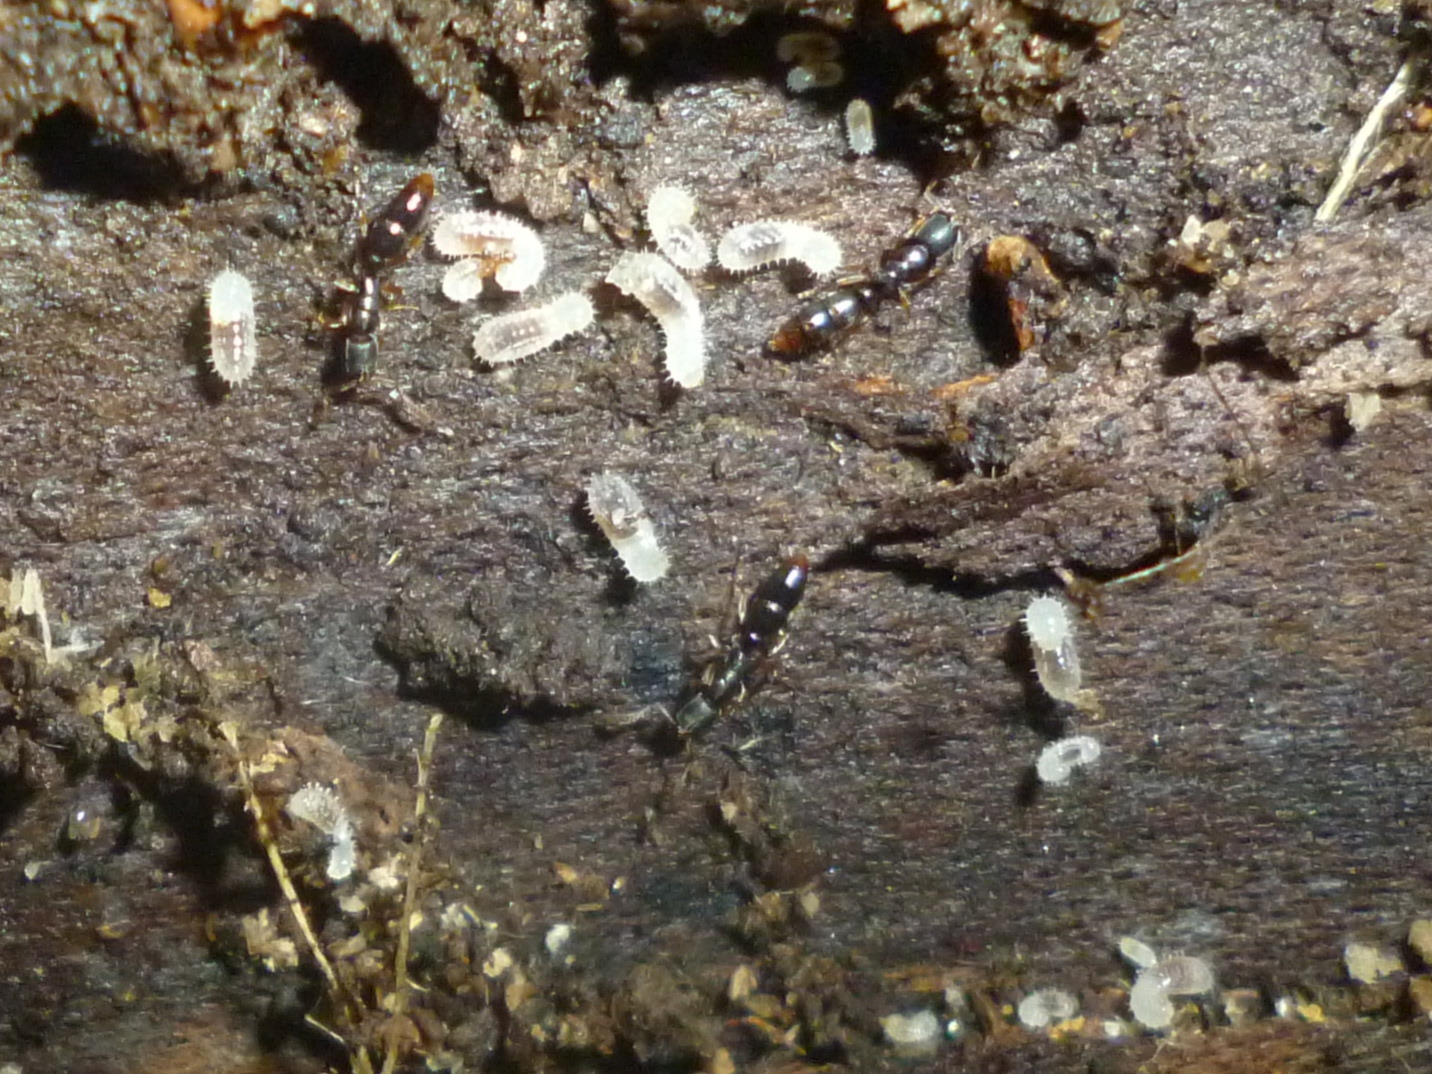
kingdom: Animalia
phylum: Arthropoda
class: Insecta
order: Hymenoptera
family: Formicidae
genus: Ponera
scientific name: Ponera pennsylvanica
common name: Pennsylvania ponera
